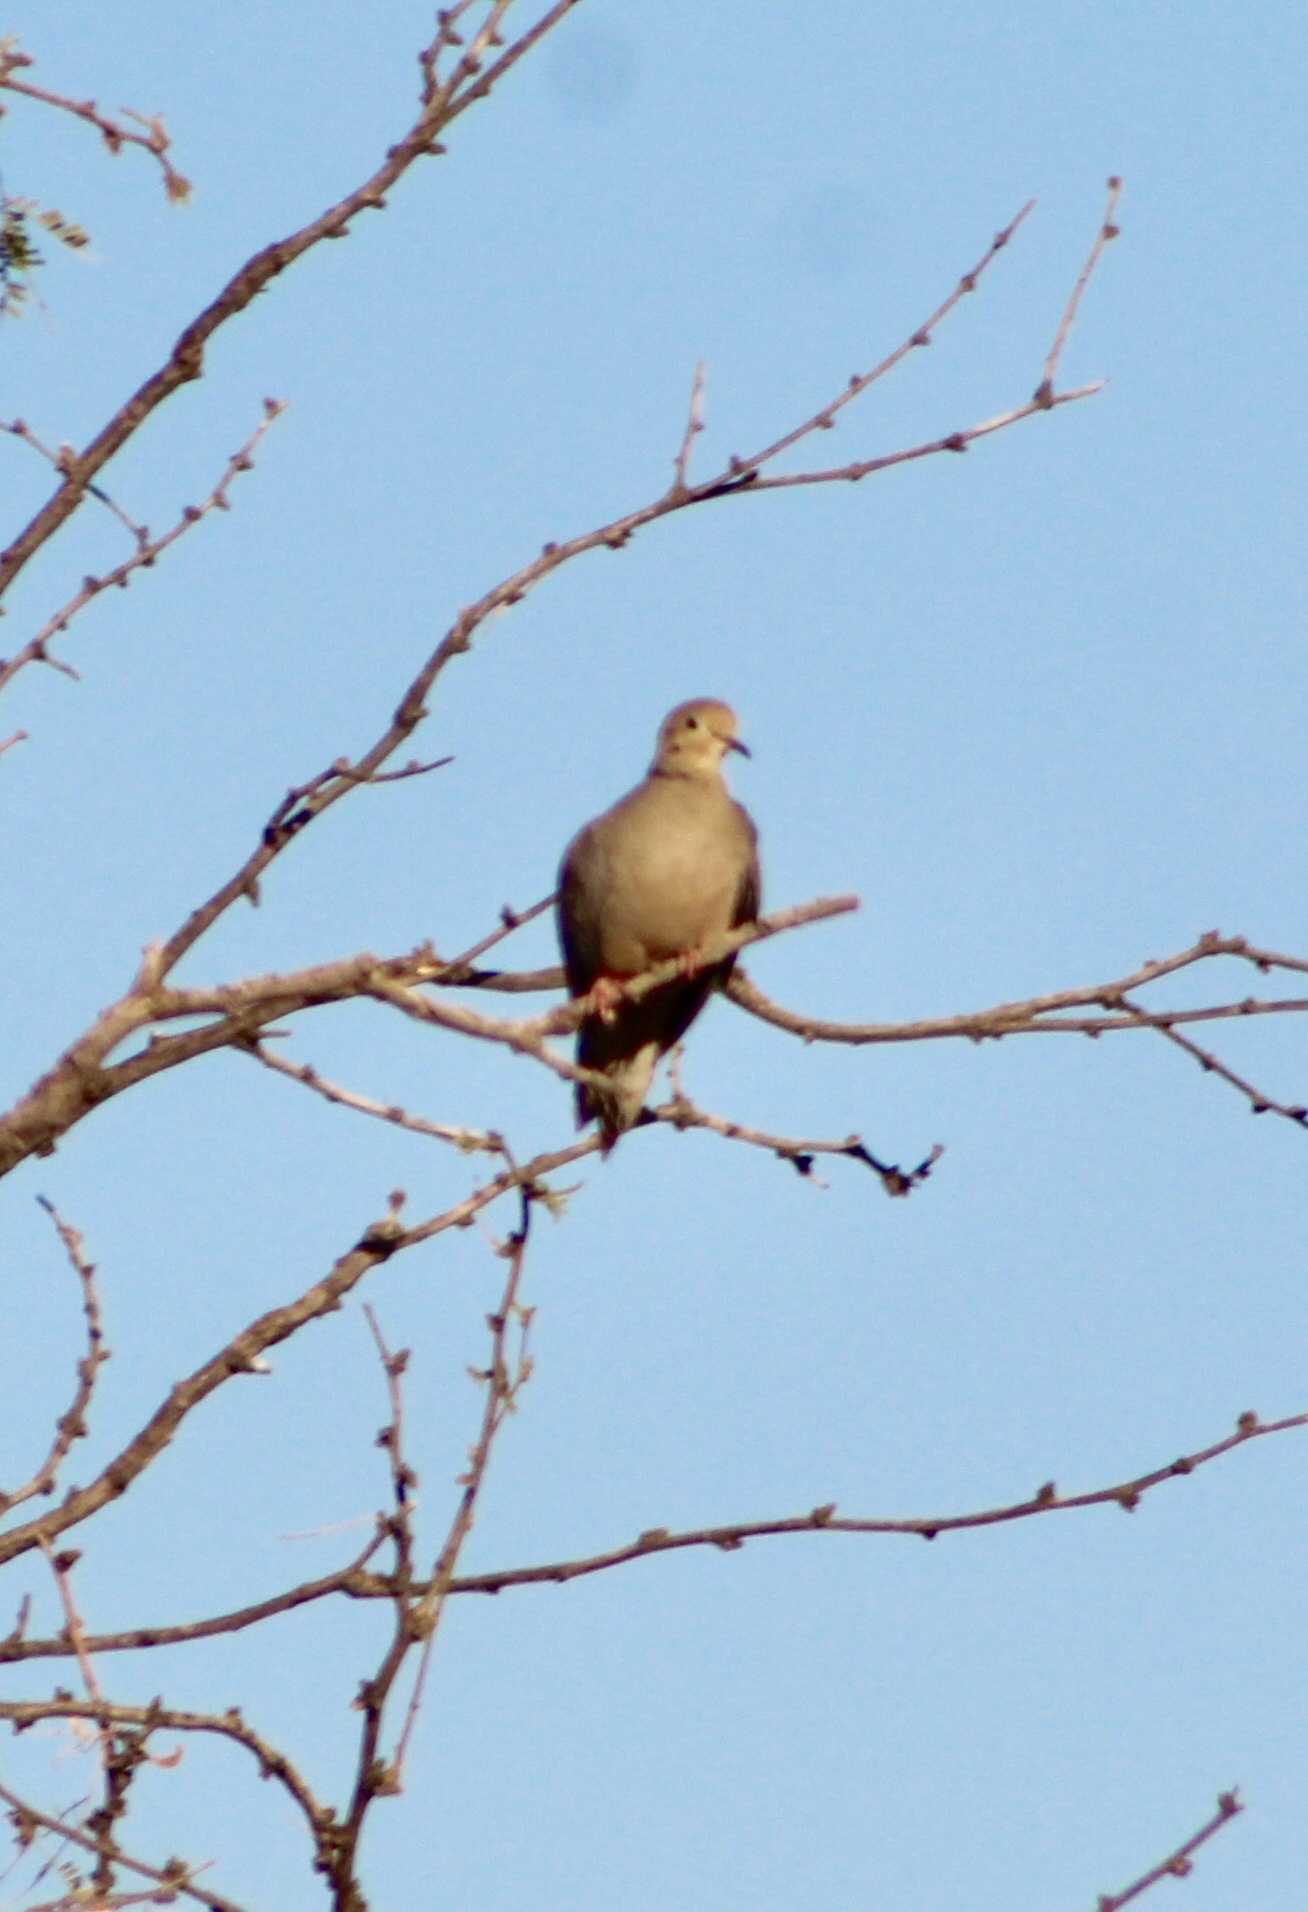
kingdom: Animalia
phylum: Chordata
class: Aves
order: Columbiformes
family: Columbidae
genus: Zenaida
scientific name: Zenaida macroura
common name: Mourning dove
